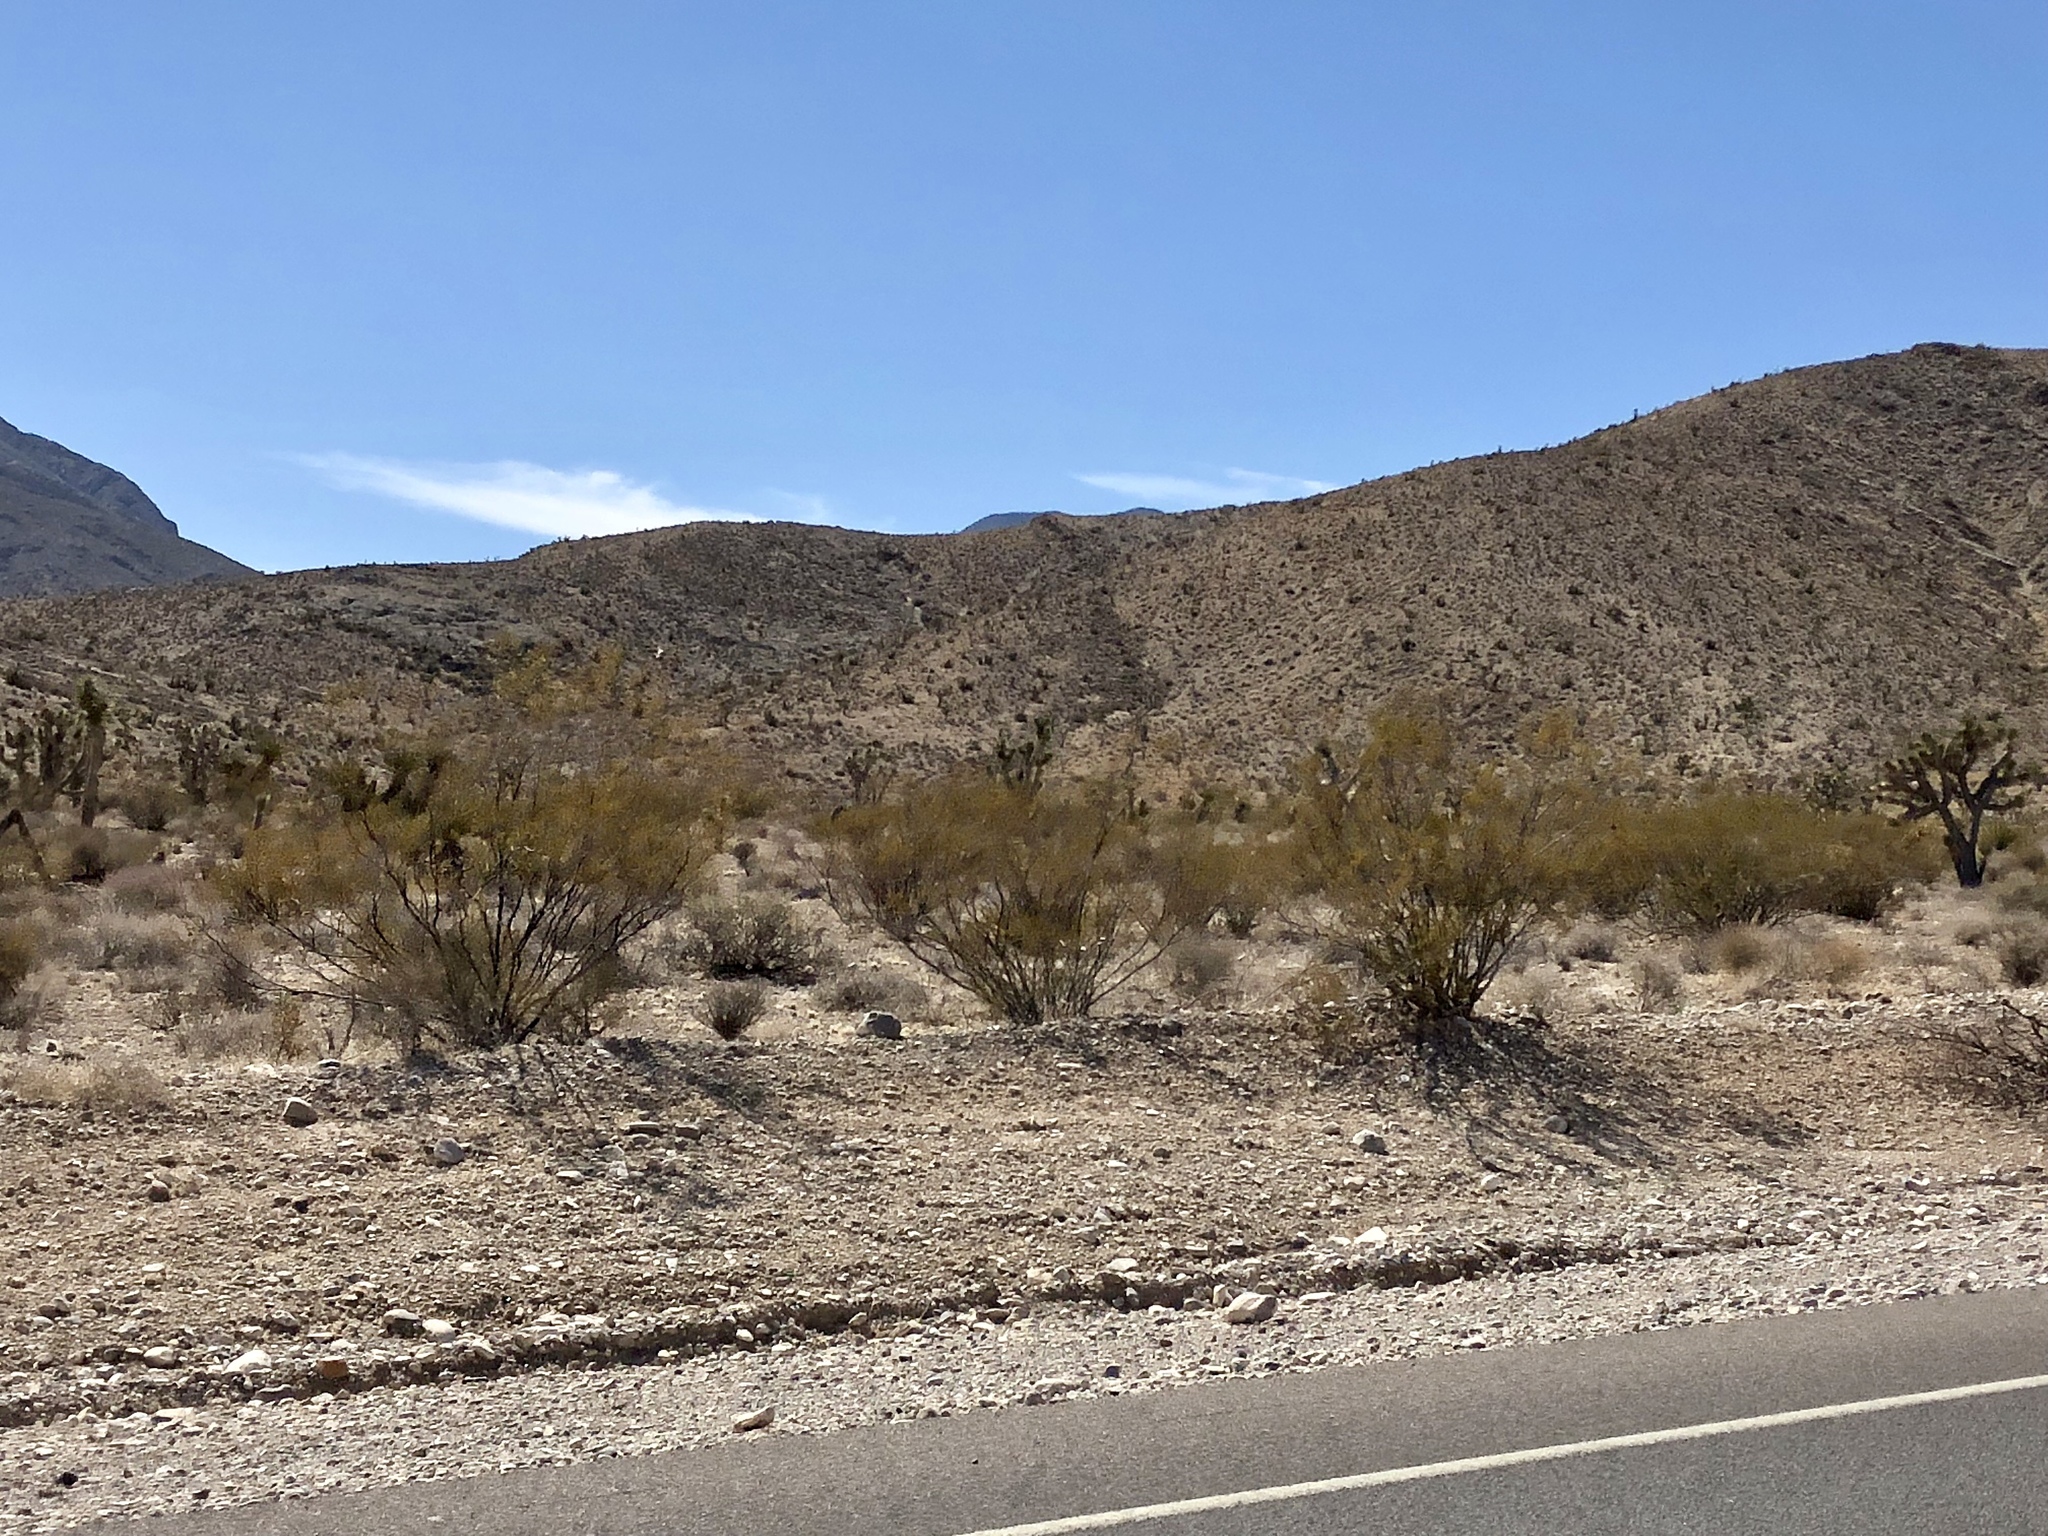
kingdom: Plantae
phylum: Tracheophyta
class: Magnoliopsida
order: Zygophyllales
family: Zygophyllaceae
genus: Larrea
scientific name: Larrea tridentata
